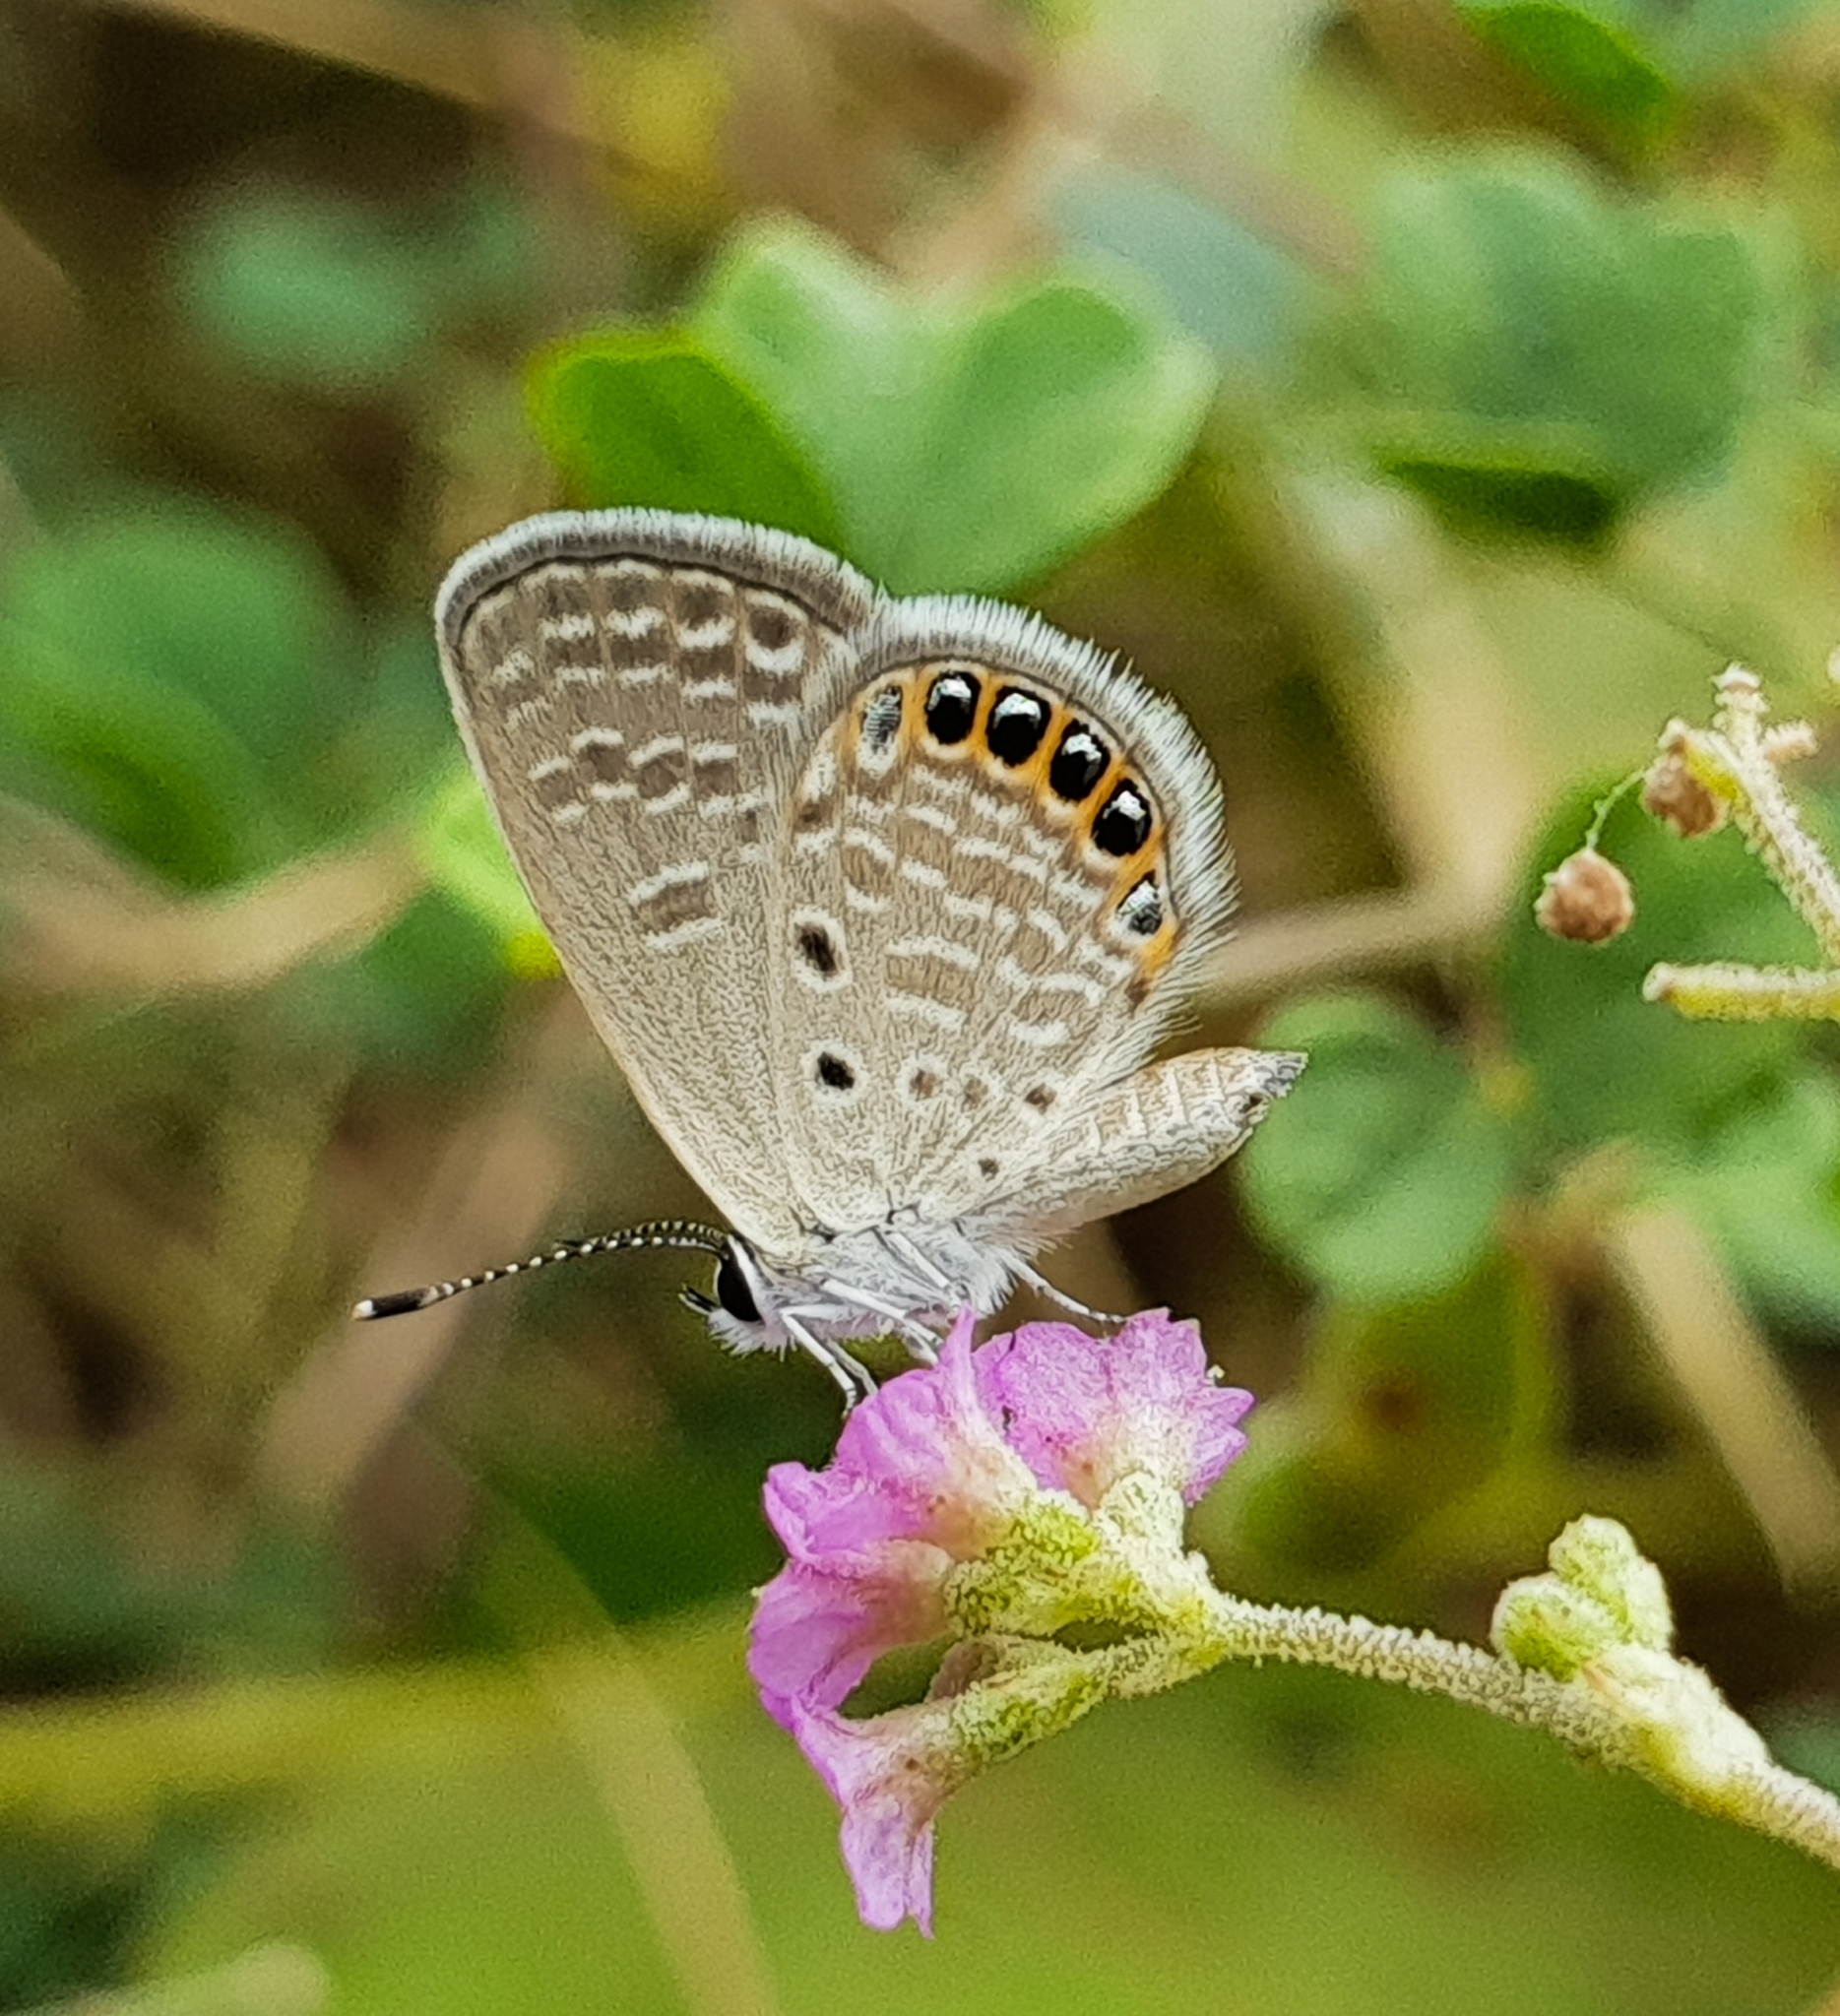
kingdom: Animalia
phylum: Arthropoda
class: Insecta
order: Lepidoptera
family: Lycaenidae
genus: Freyeria
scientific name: Freyeria putli
